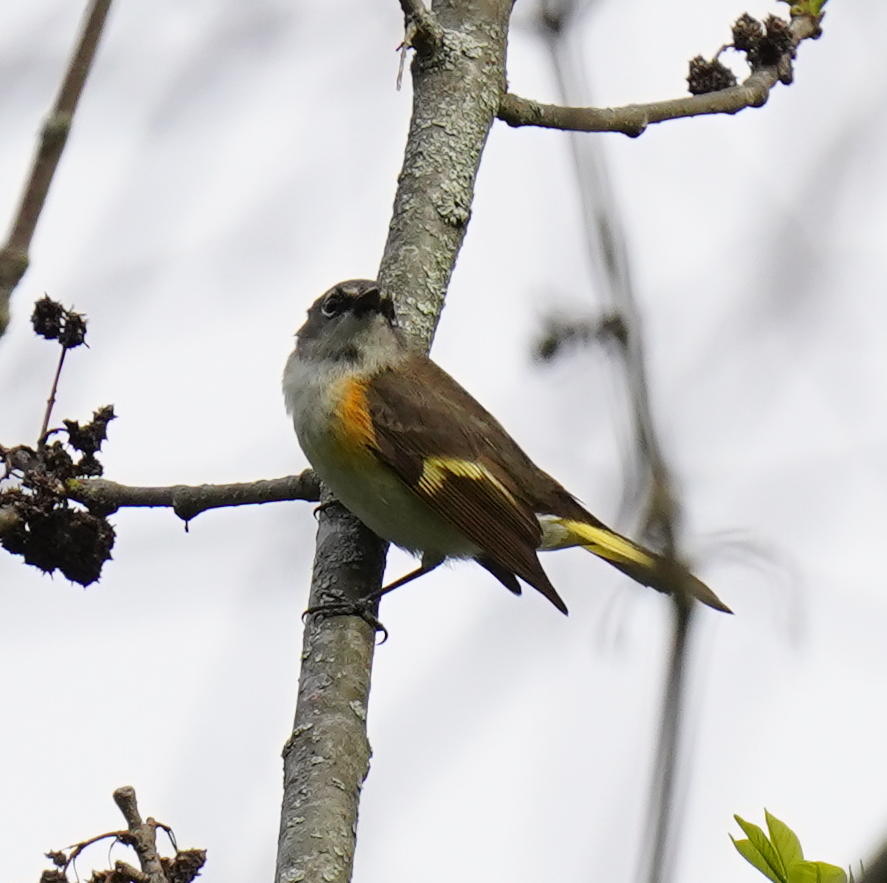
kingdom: Animalia
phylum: Chordata
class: Aves
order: Passeriformes
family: Parulidae
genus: Setophaga
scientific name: Setophaga ruticilla
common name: American redstart
